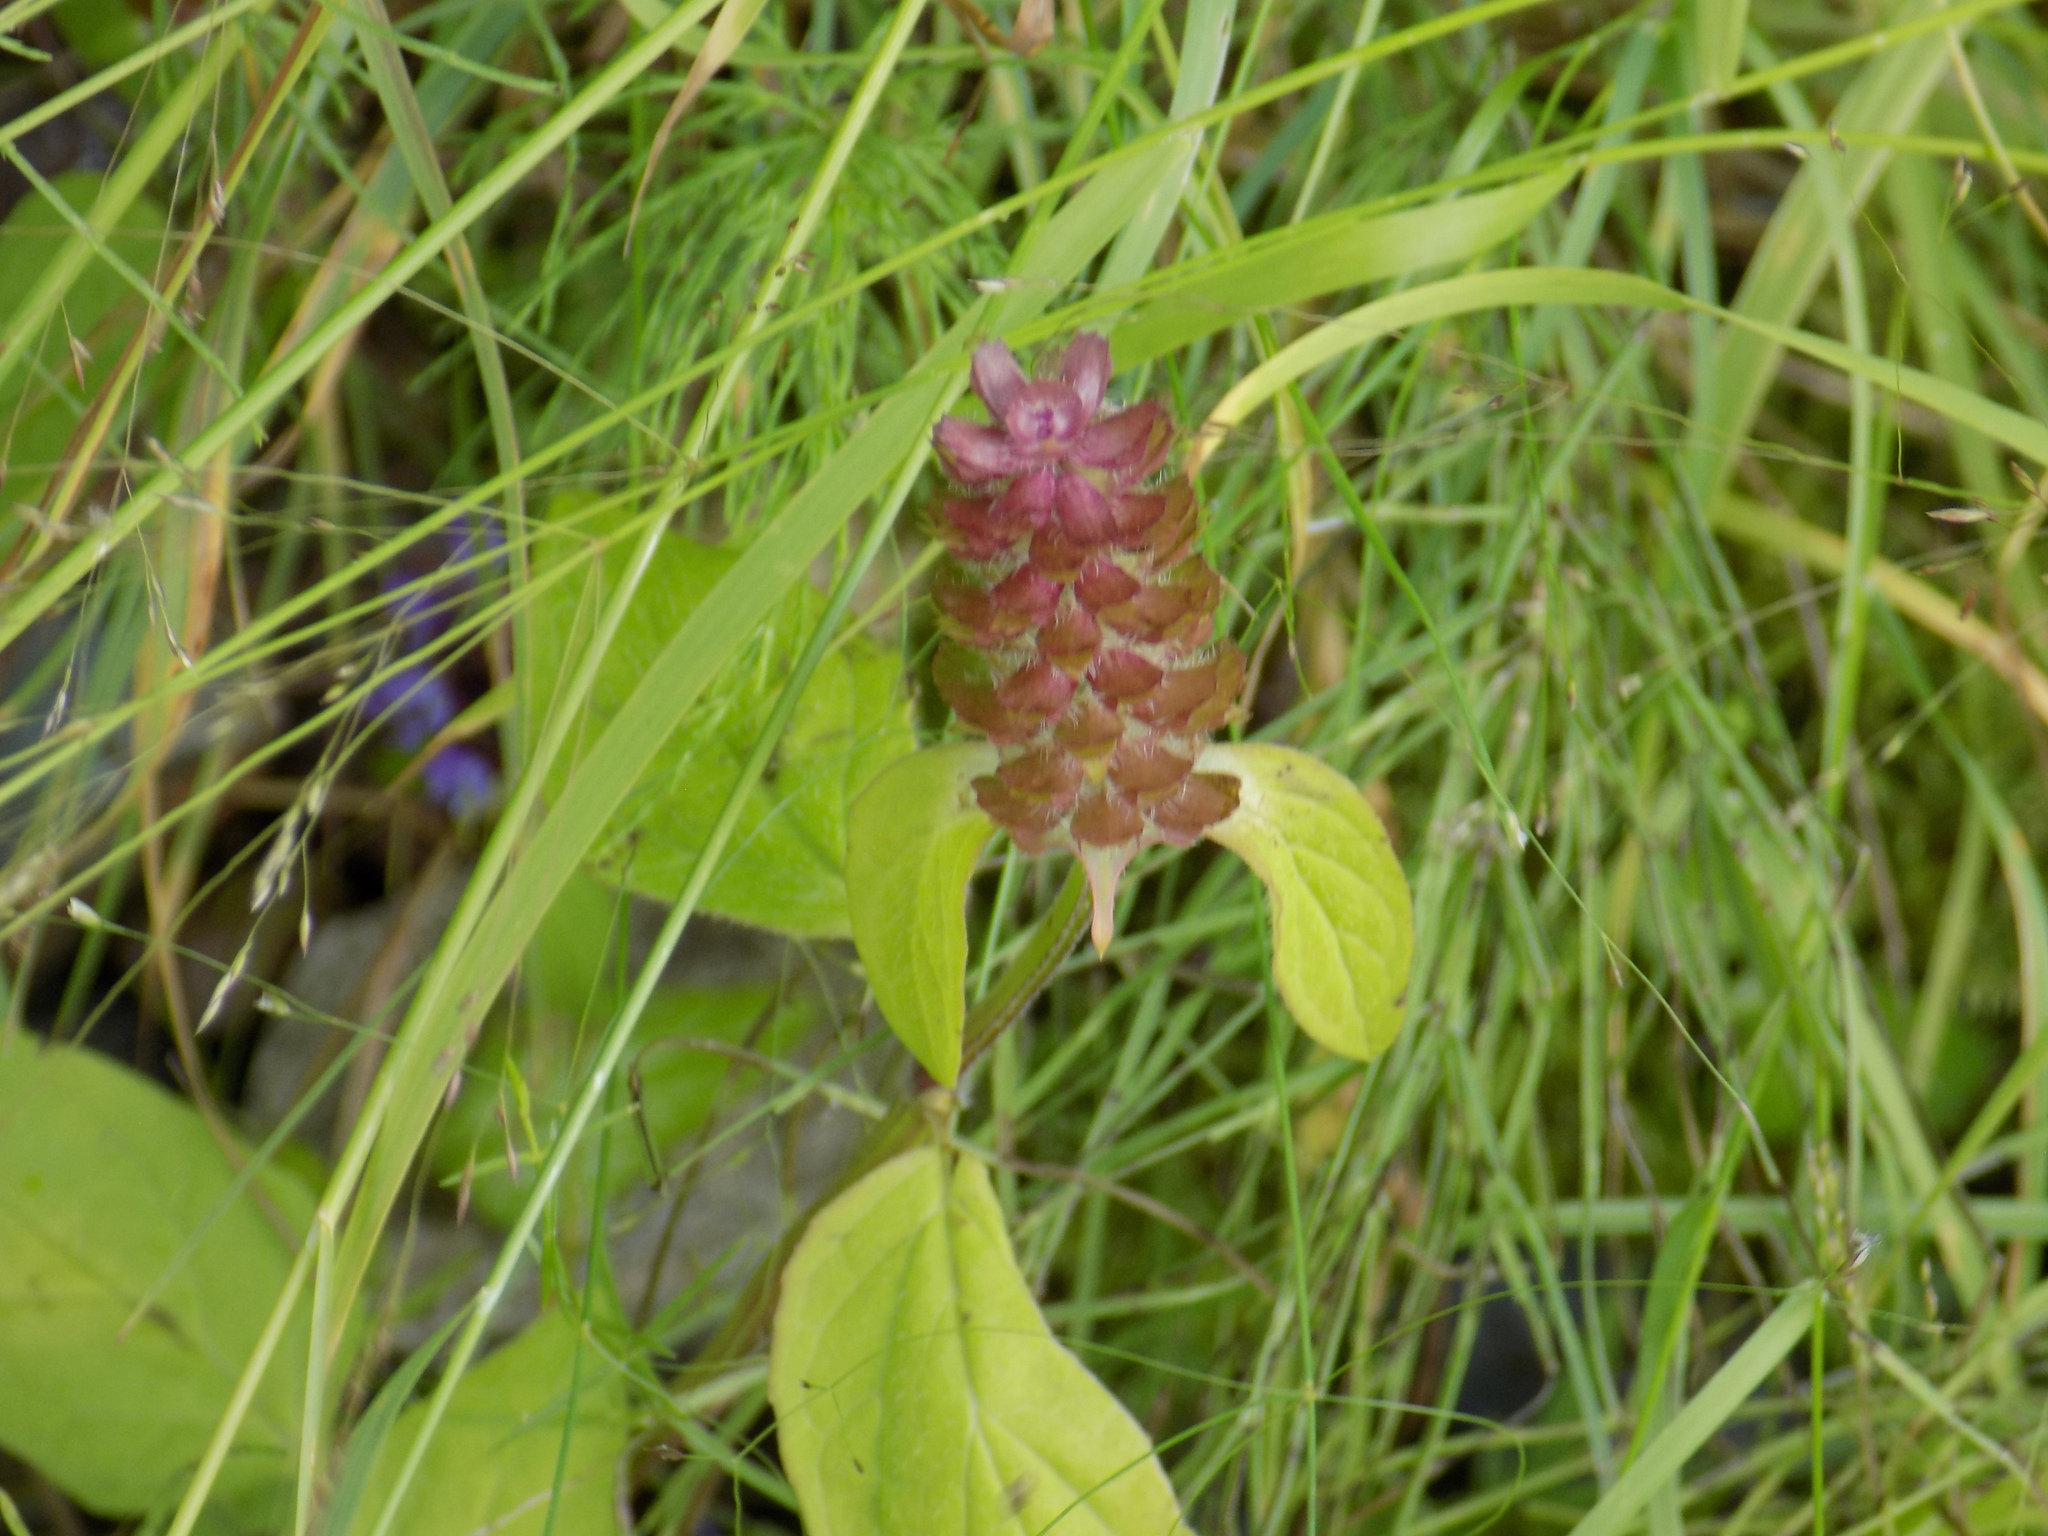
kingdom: Plantae
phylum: Tracheophyta
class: Magnoliopsida
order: Lamiales
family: Lamiaceae
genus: Prunella
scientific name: Prunella vulgaris
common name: Heal-all
